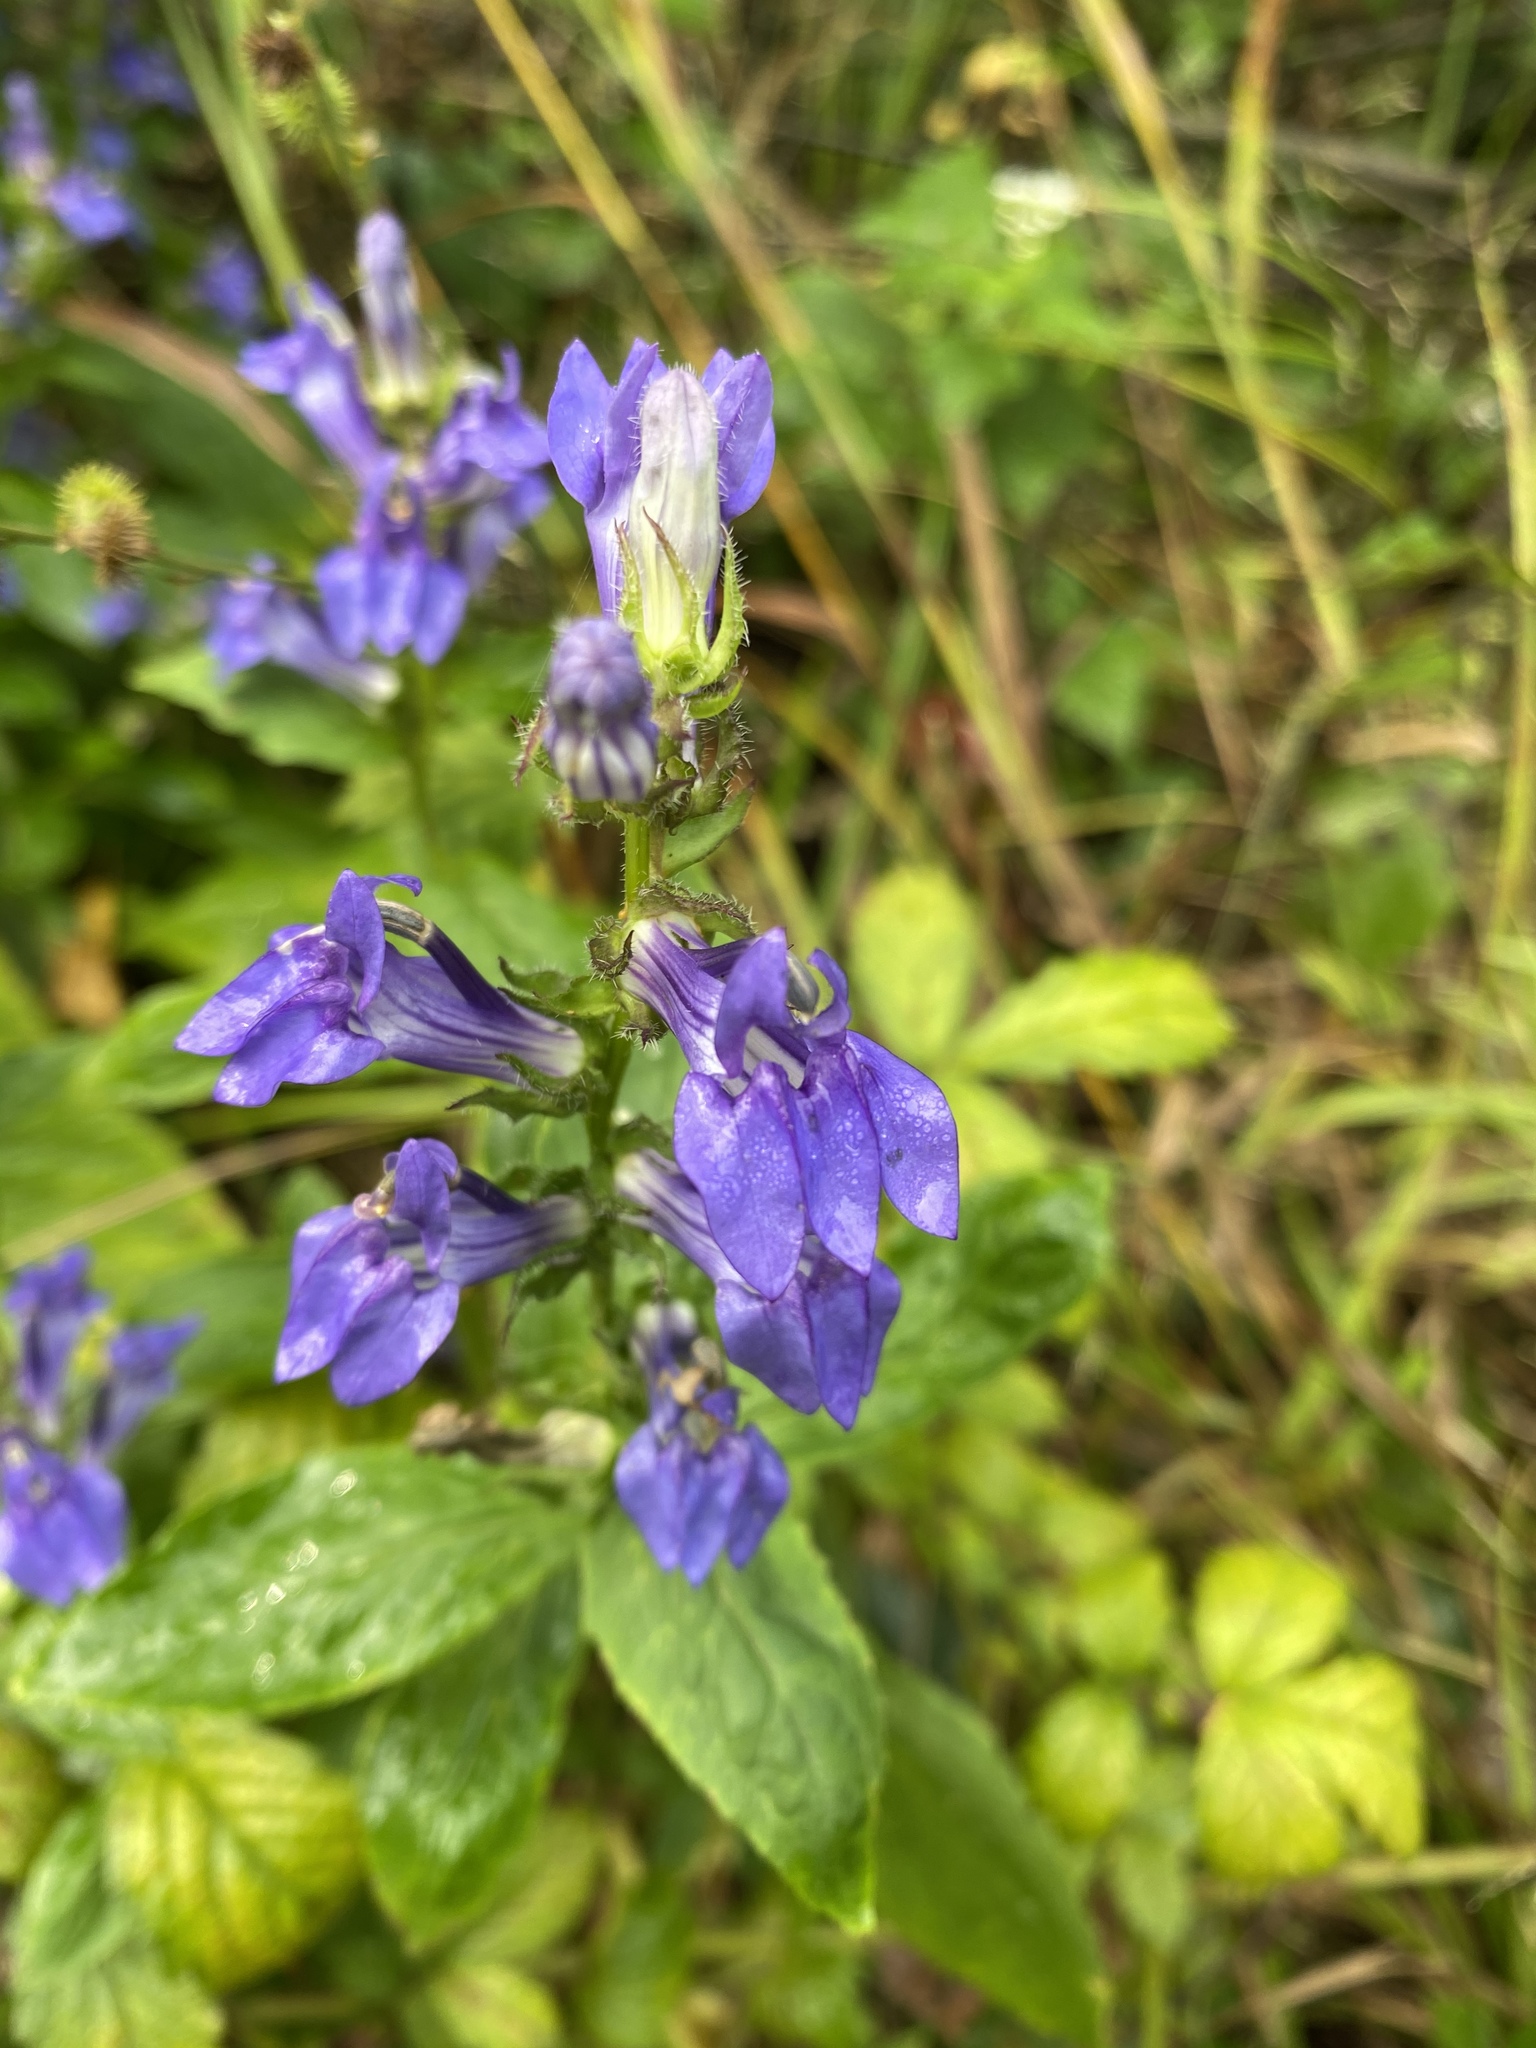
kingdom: Plantae
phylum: Tracheophyta
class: Magnoliopsida
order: Asterales
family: Campanulaceae
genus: Lobelia
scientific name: Lobelia siphilitica
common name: Great lobelia
